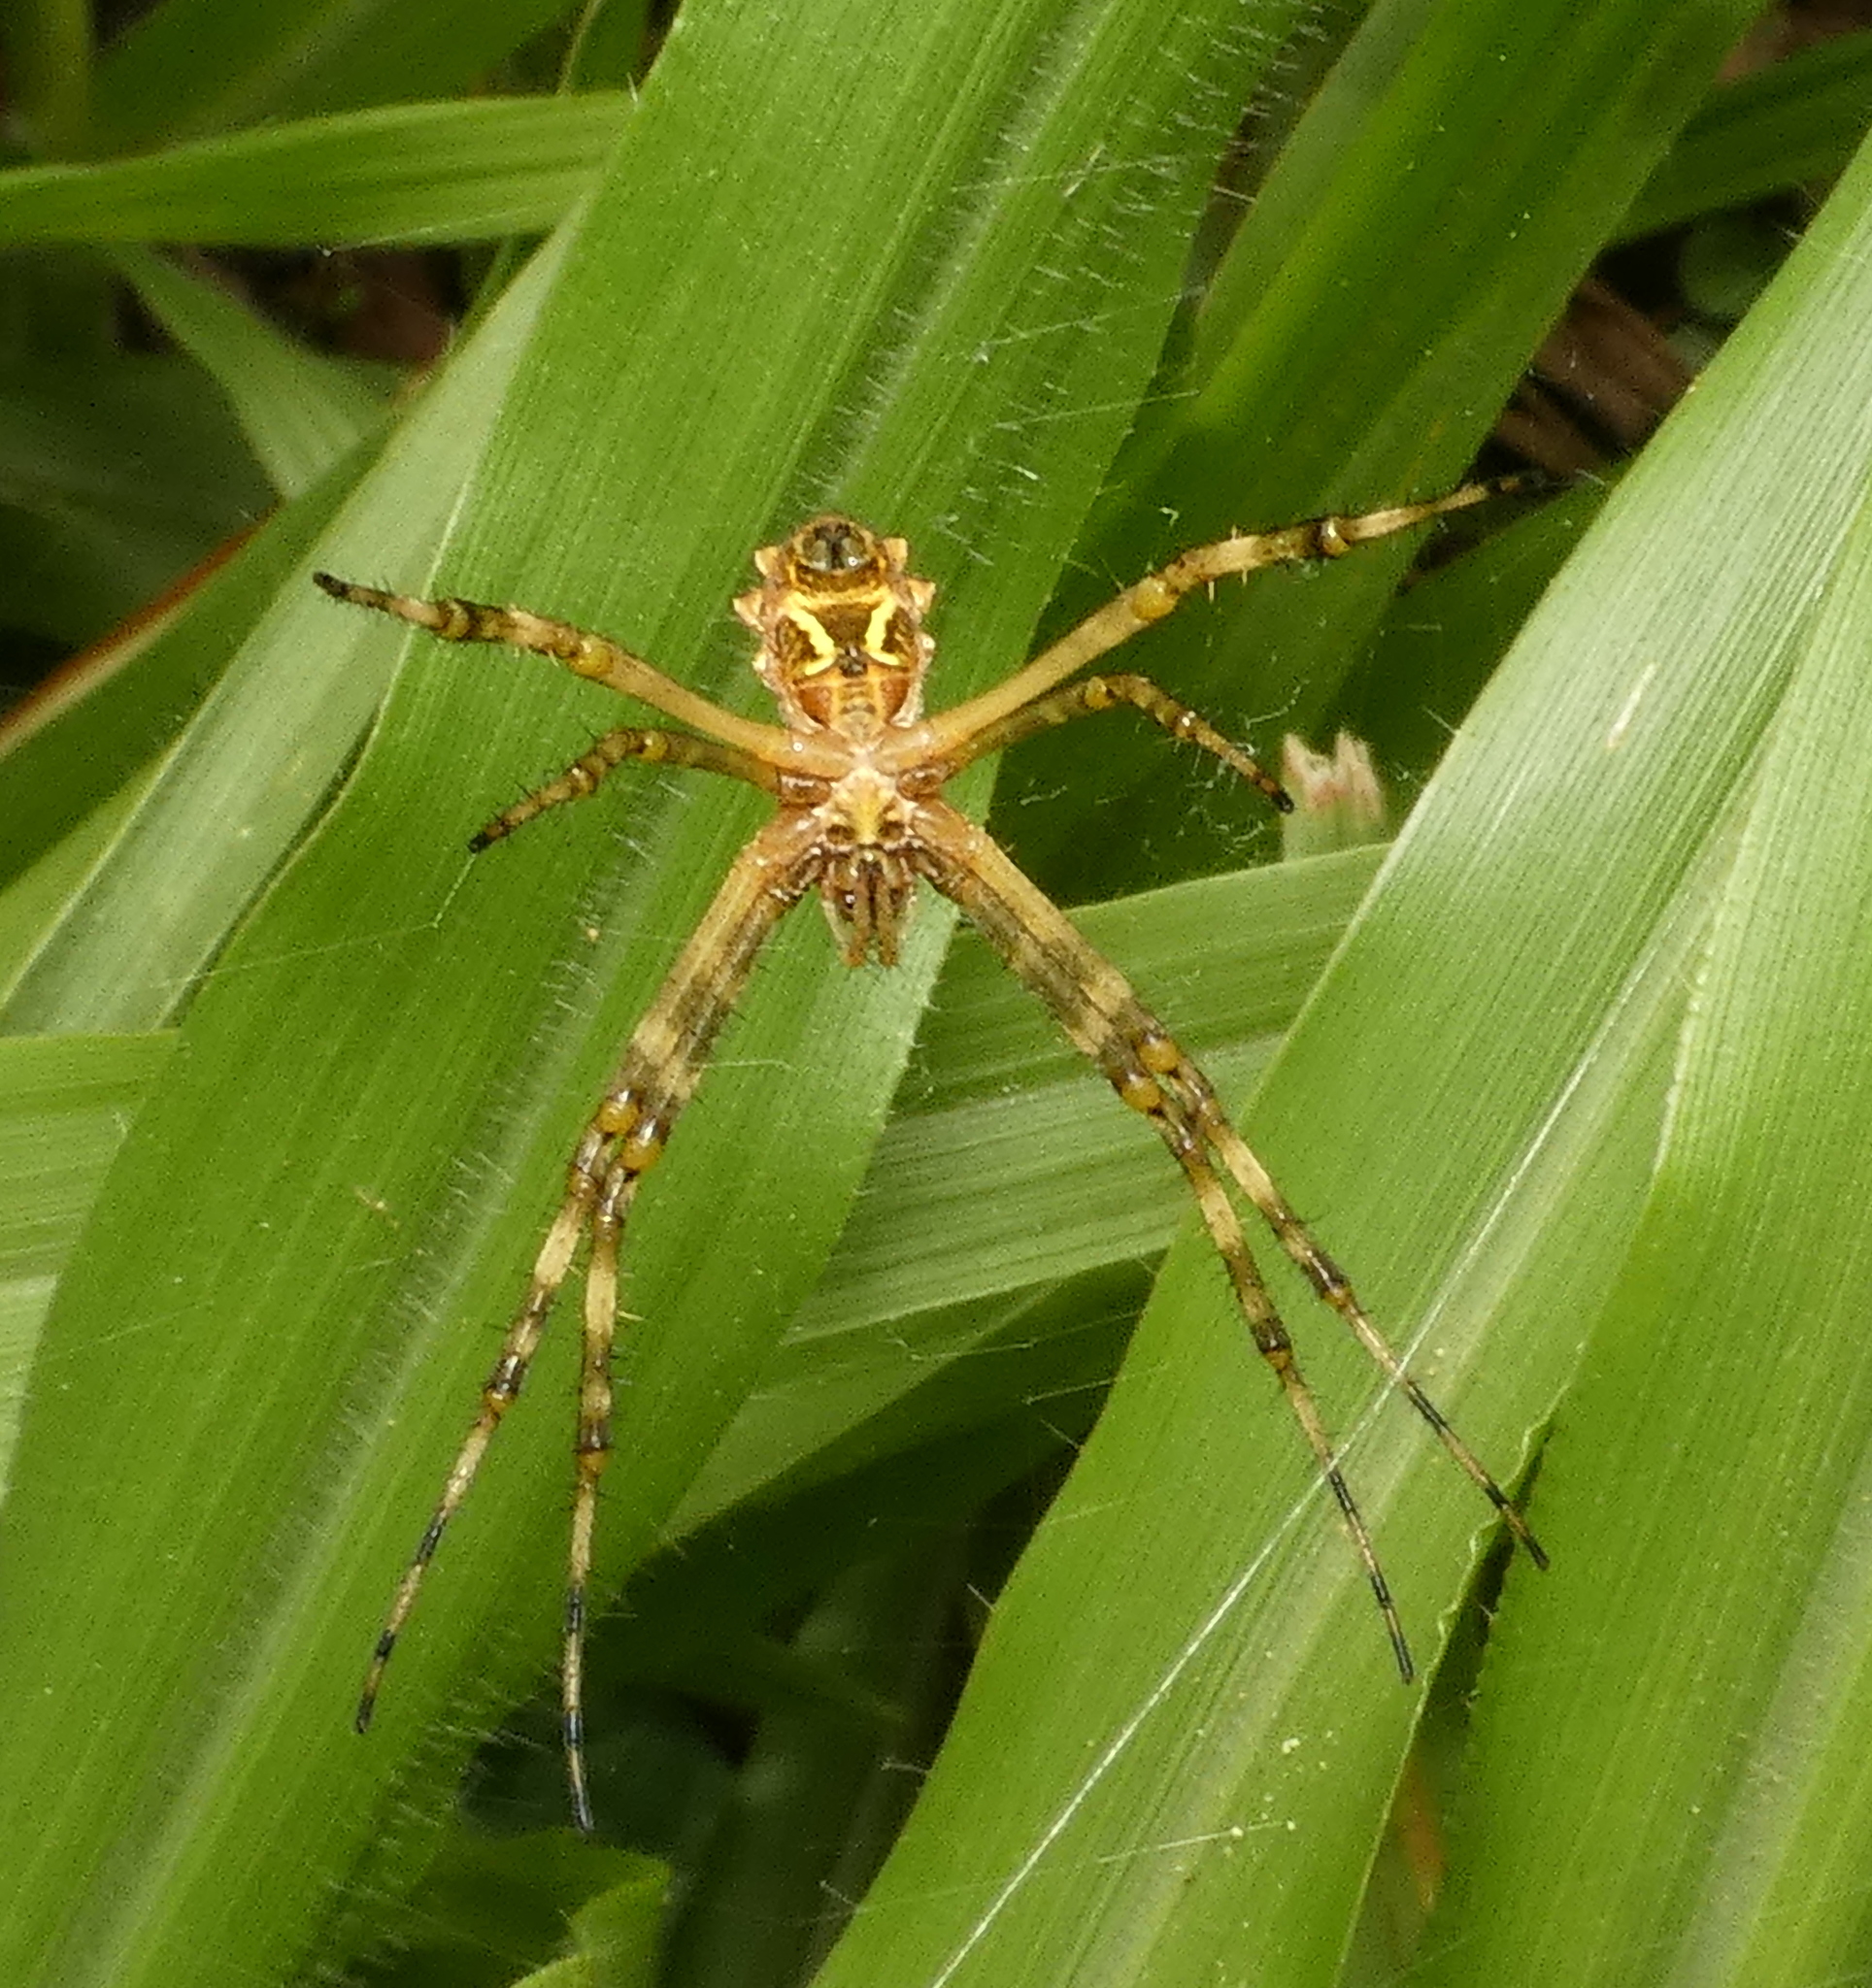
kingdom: Animalia
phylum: Arthropoda
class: Arachnida
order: Araneae
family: Araneidae
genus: Argiope
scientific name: Argiope argentata
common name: Orb weavers
